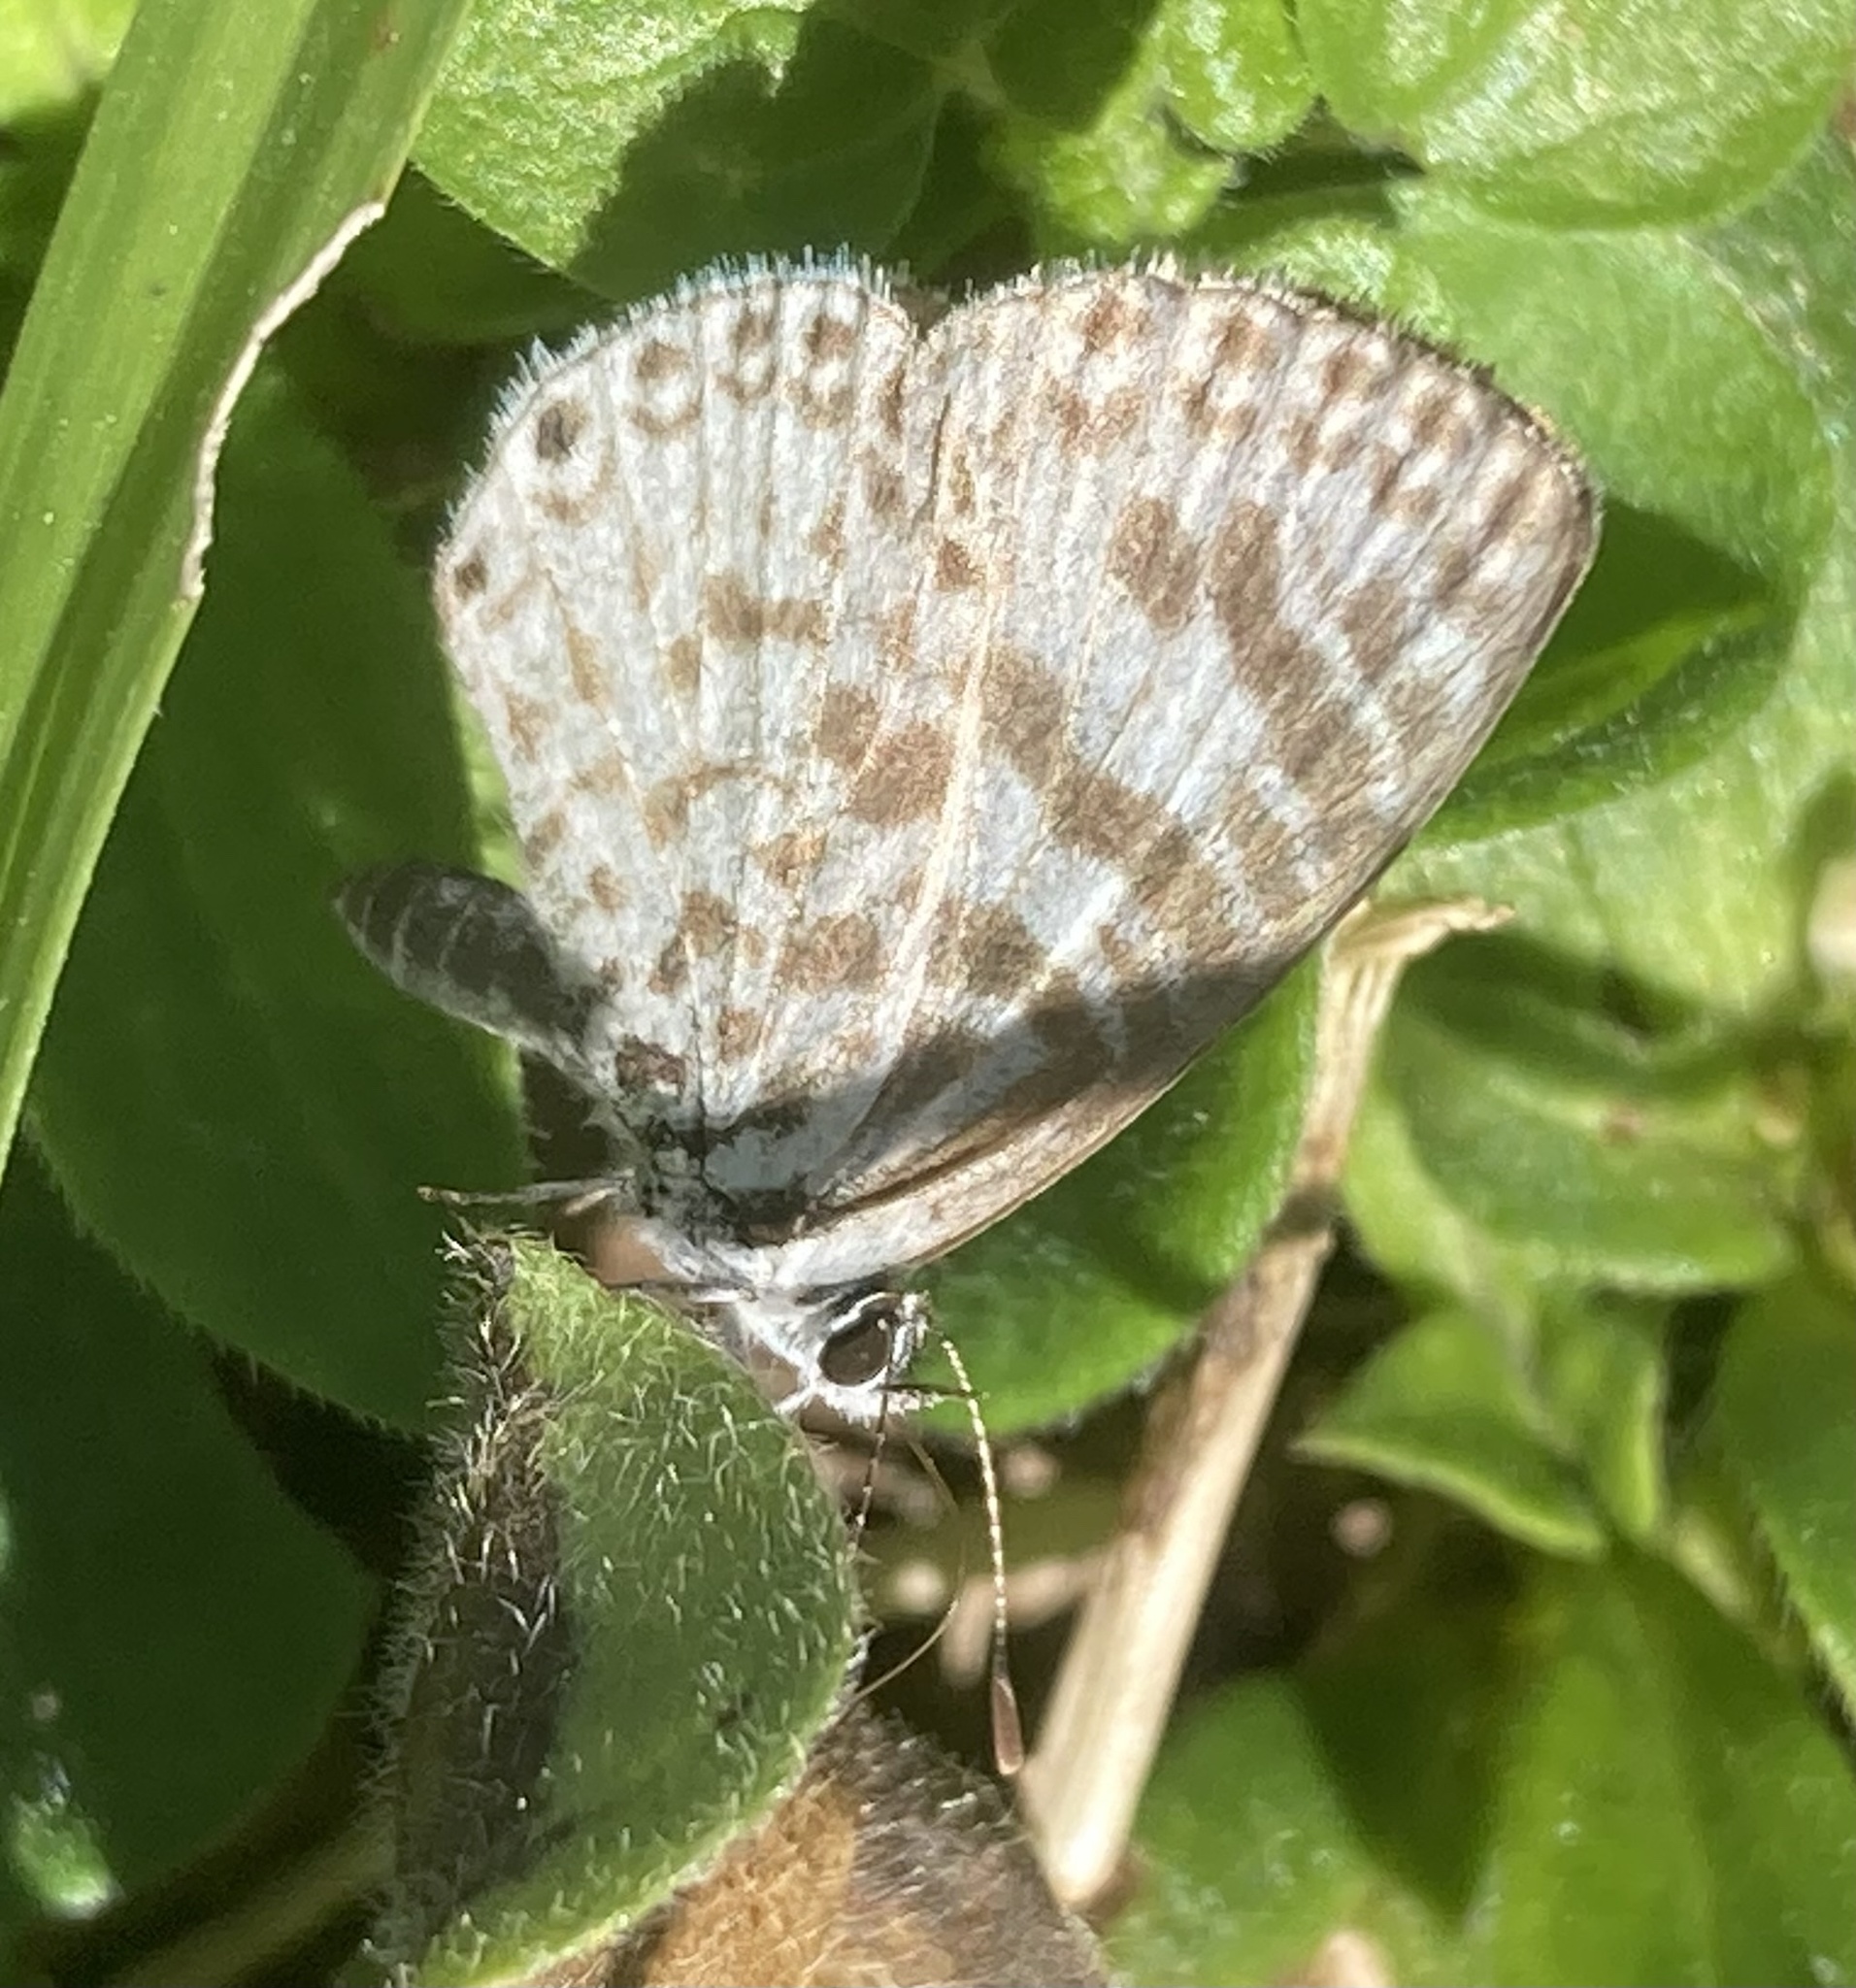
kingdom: Animalia
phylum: Arthropoda
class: Insecta
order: Lepidoptera
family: Lycaenidae
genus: Leptotes
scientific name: Leptotes cassius
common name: Cassius blue
